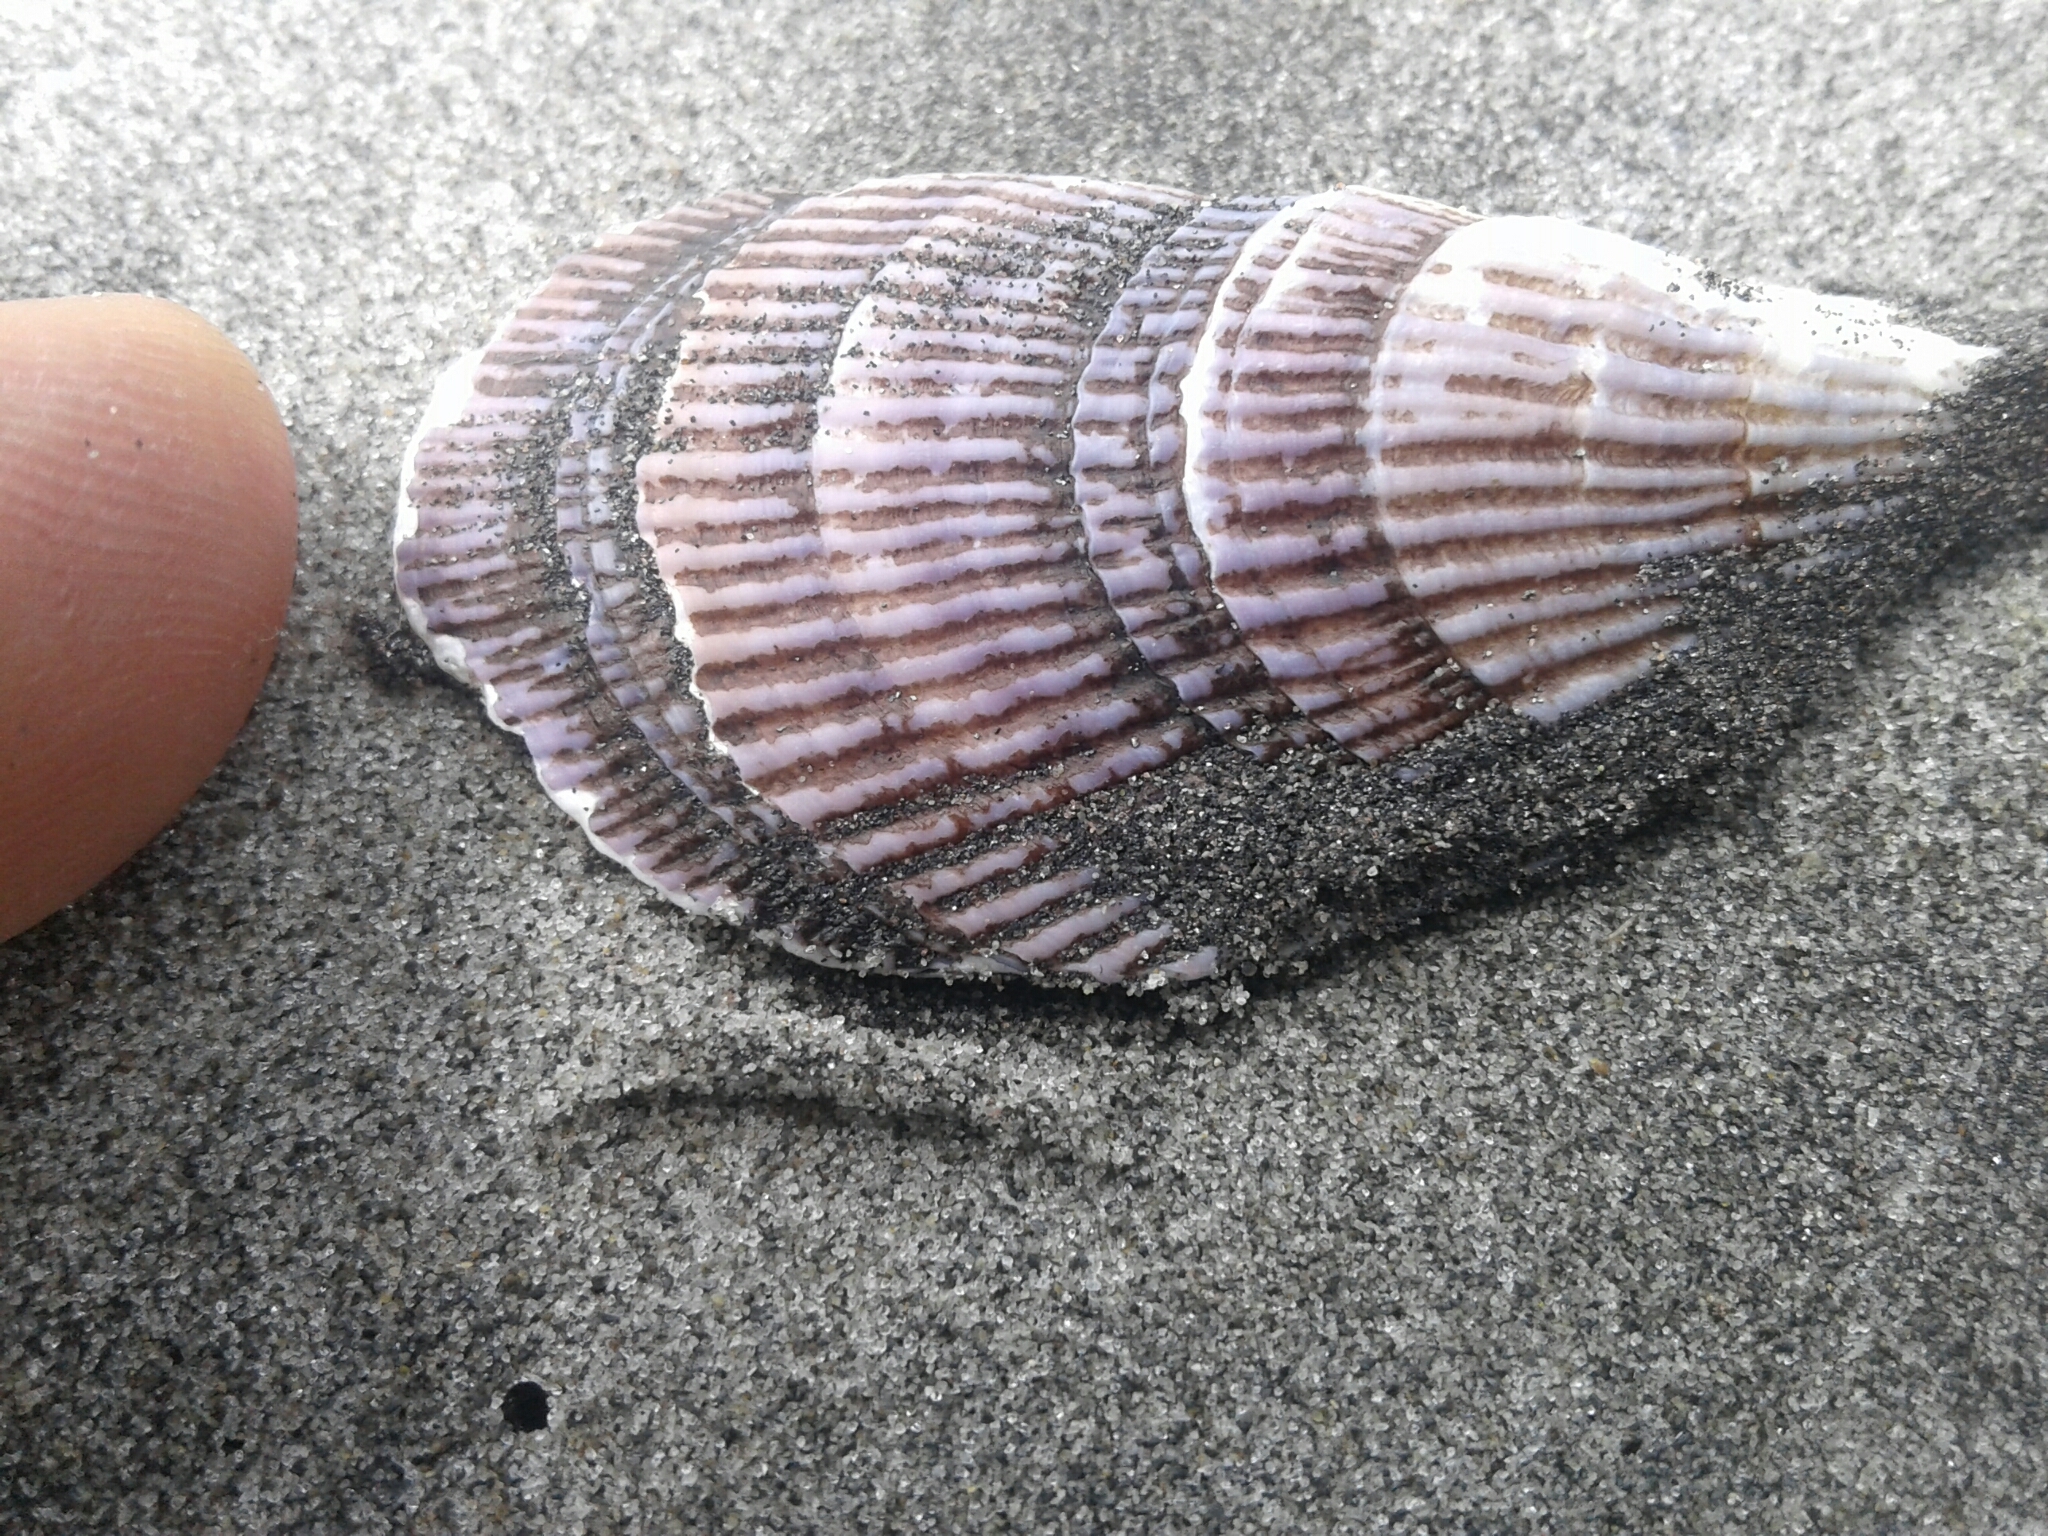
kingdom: Animalia
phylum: Mollusca
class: Bivalvia
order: Mytilida
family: Mytilidae
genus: Aulacomya
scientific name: Aulacomya maoriana
